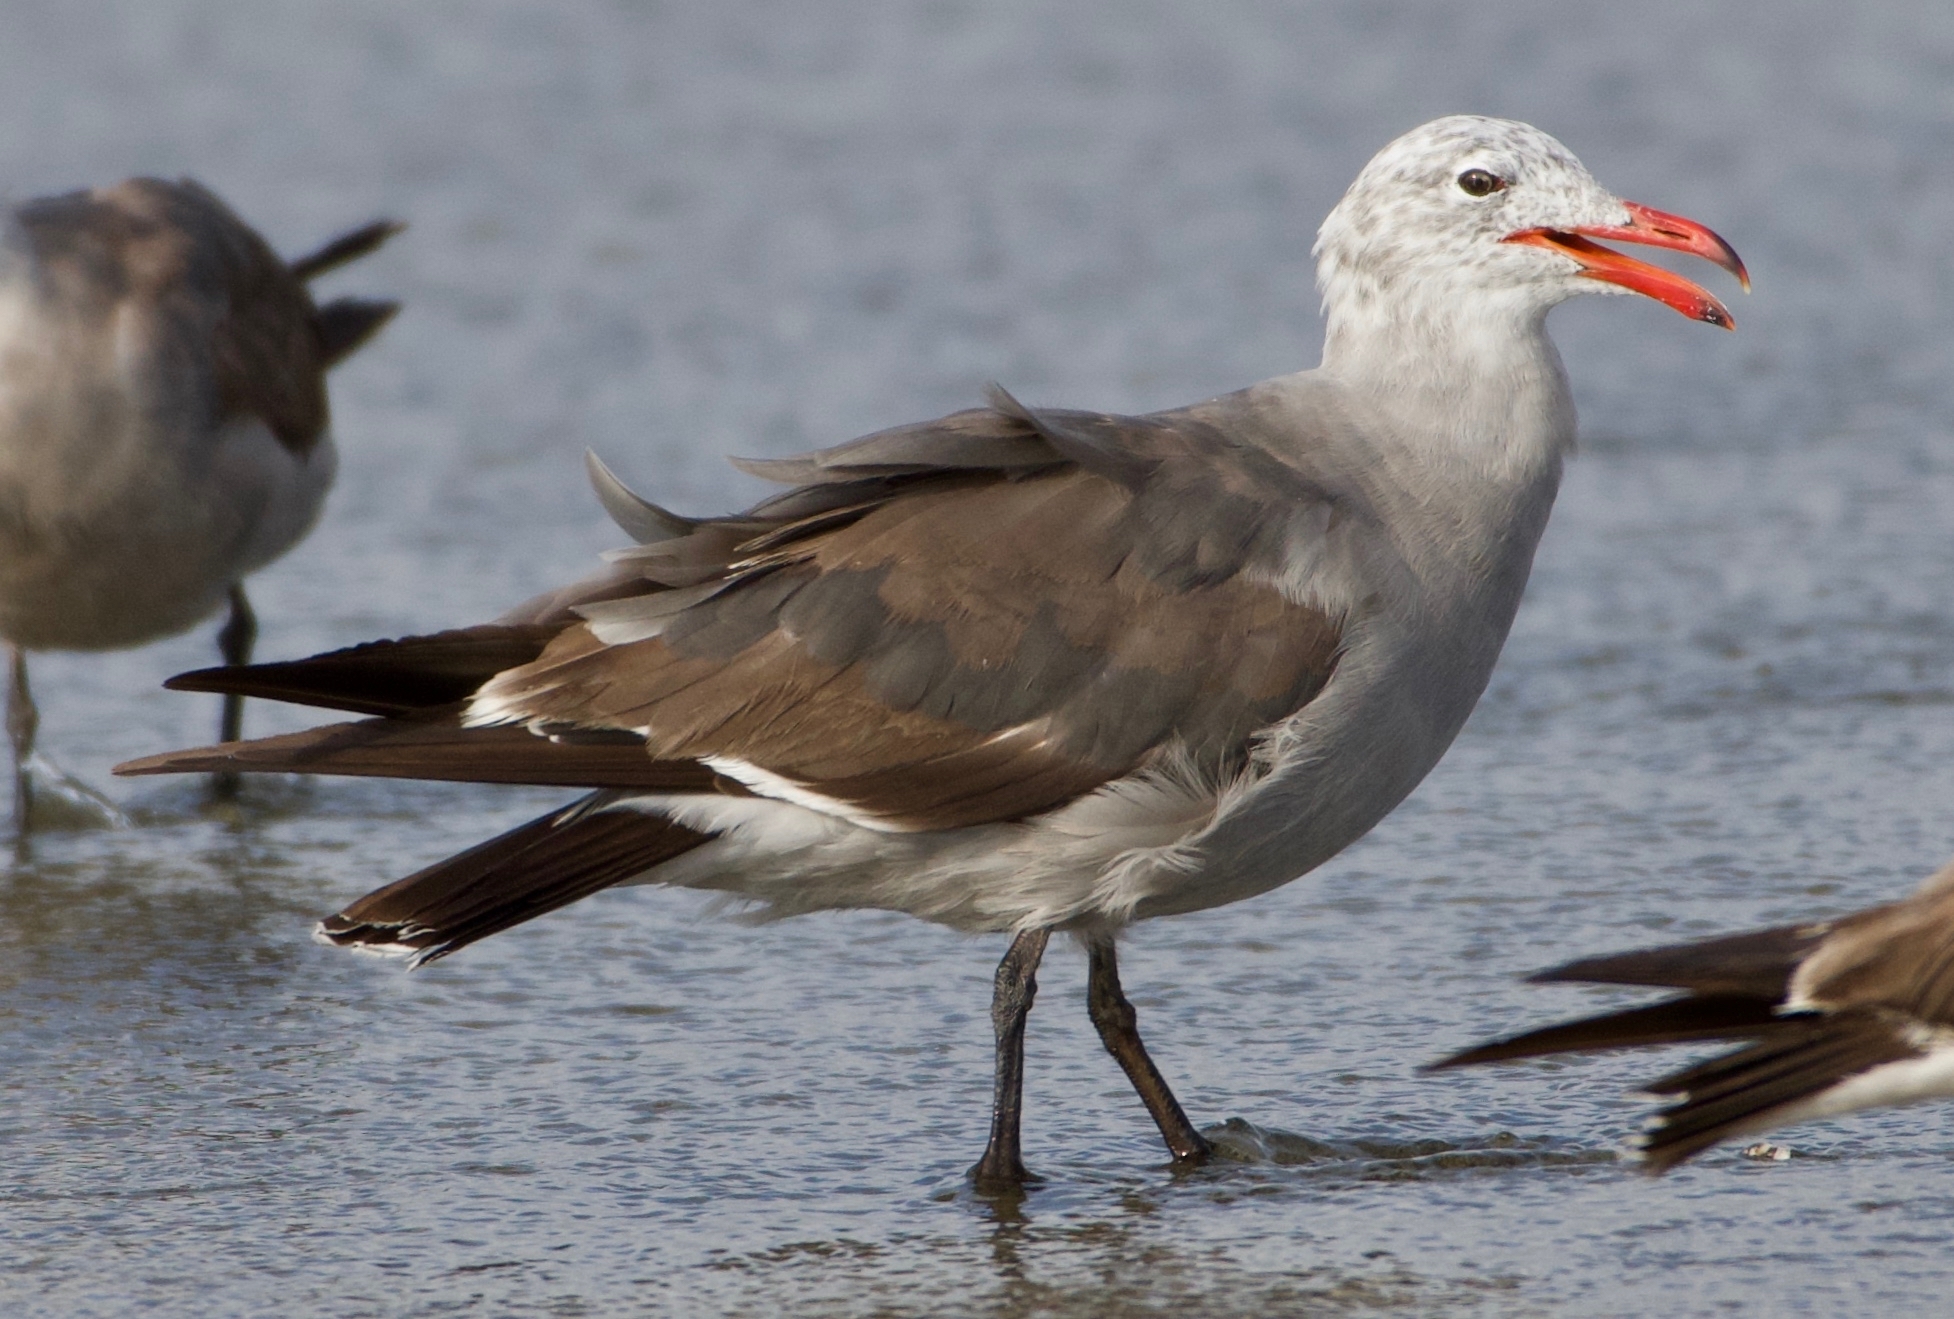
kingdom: Animalia
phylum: Chordata
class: Aves
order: Charadriiformes
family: Laridae
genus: Larus
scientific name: Larus heermanni
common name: Heermann's gull
